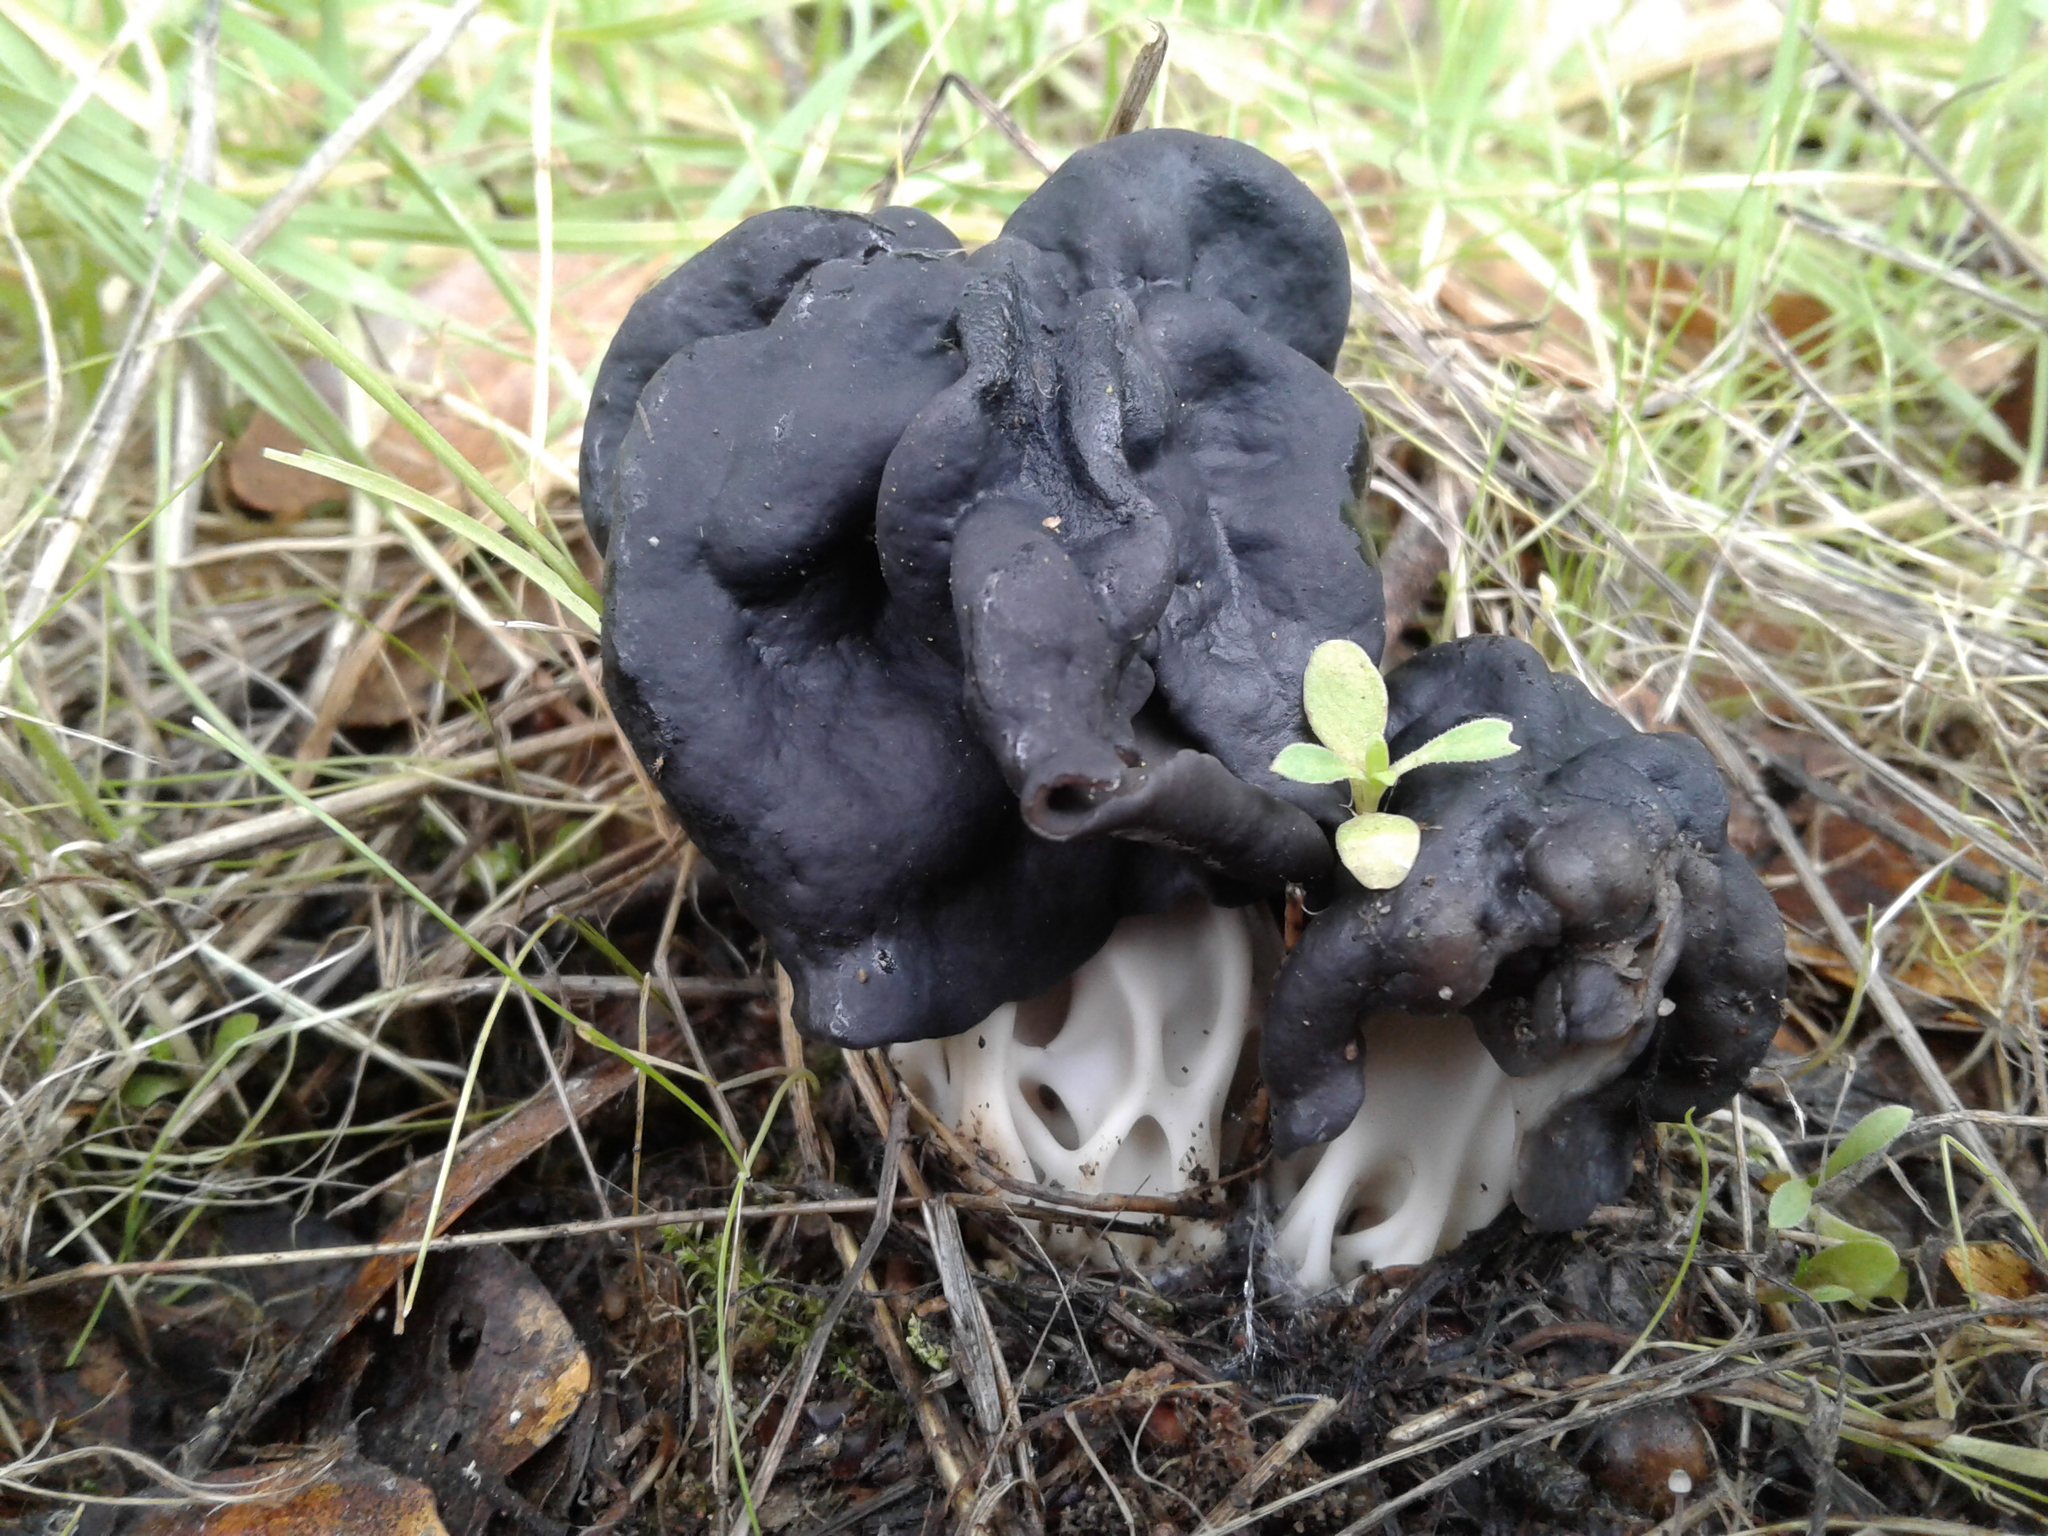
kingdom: Fungi
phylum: Ascomycota
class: Pezizomycetes
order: Pezizales
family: Helvellaceae
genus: Helvella
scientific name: Helvella dryophila
